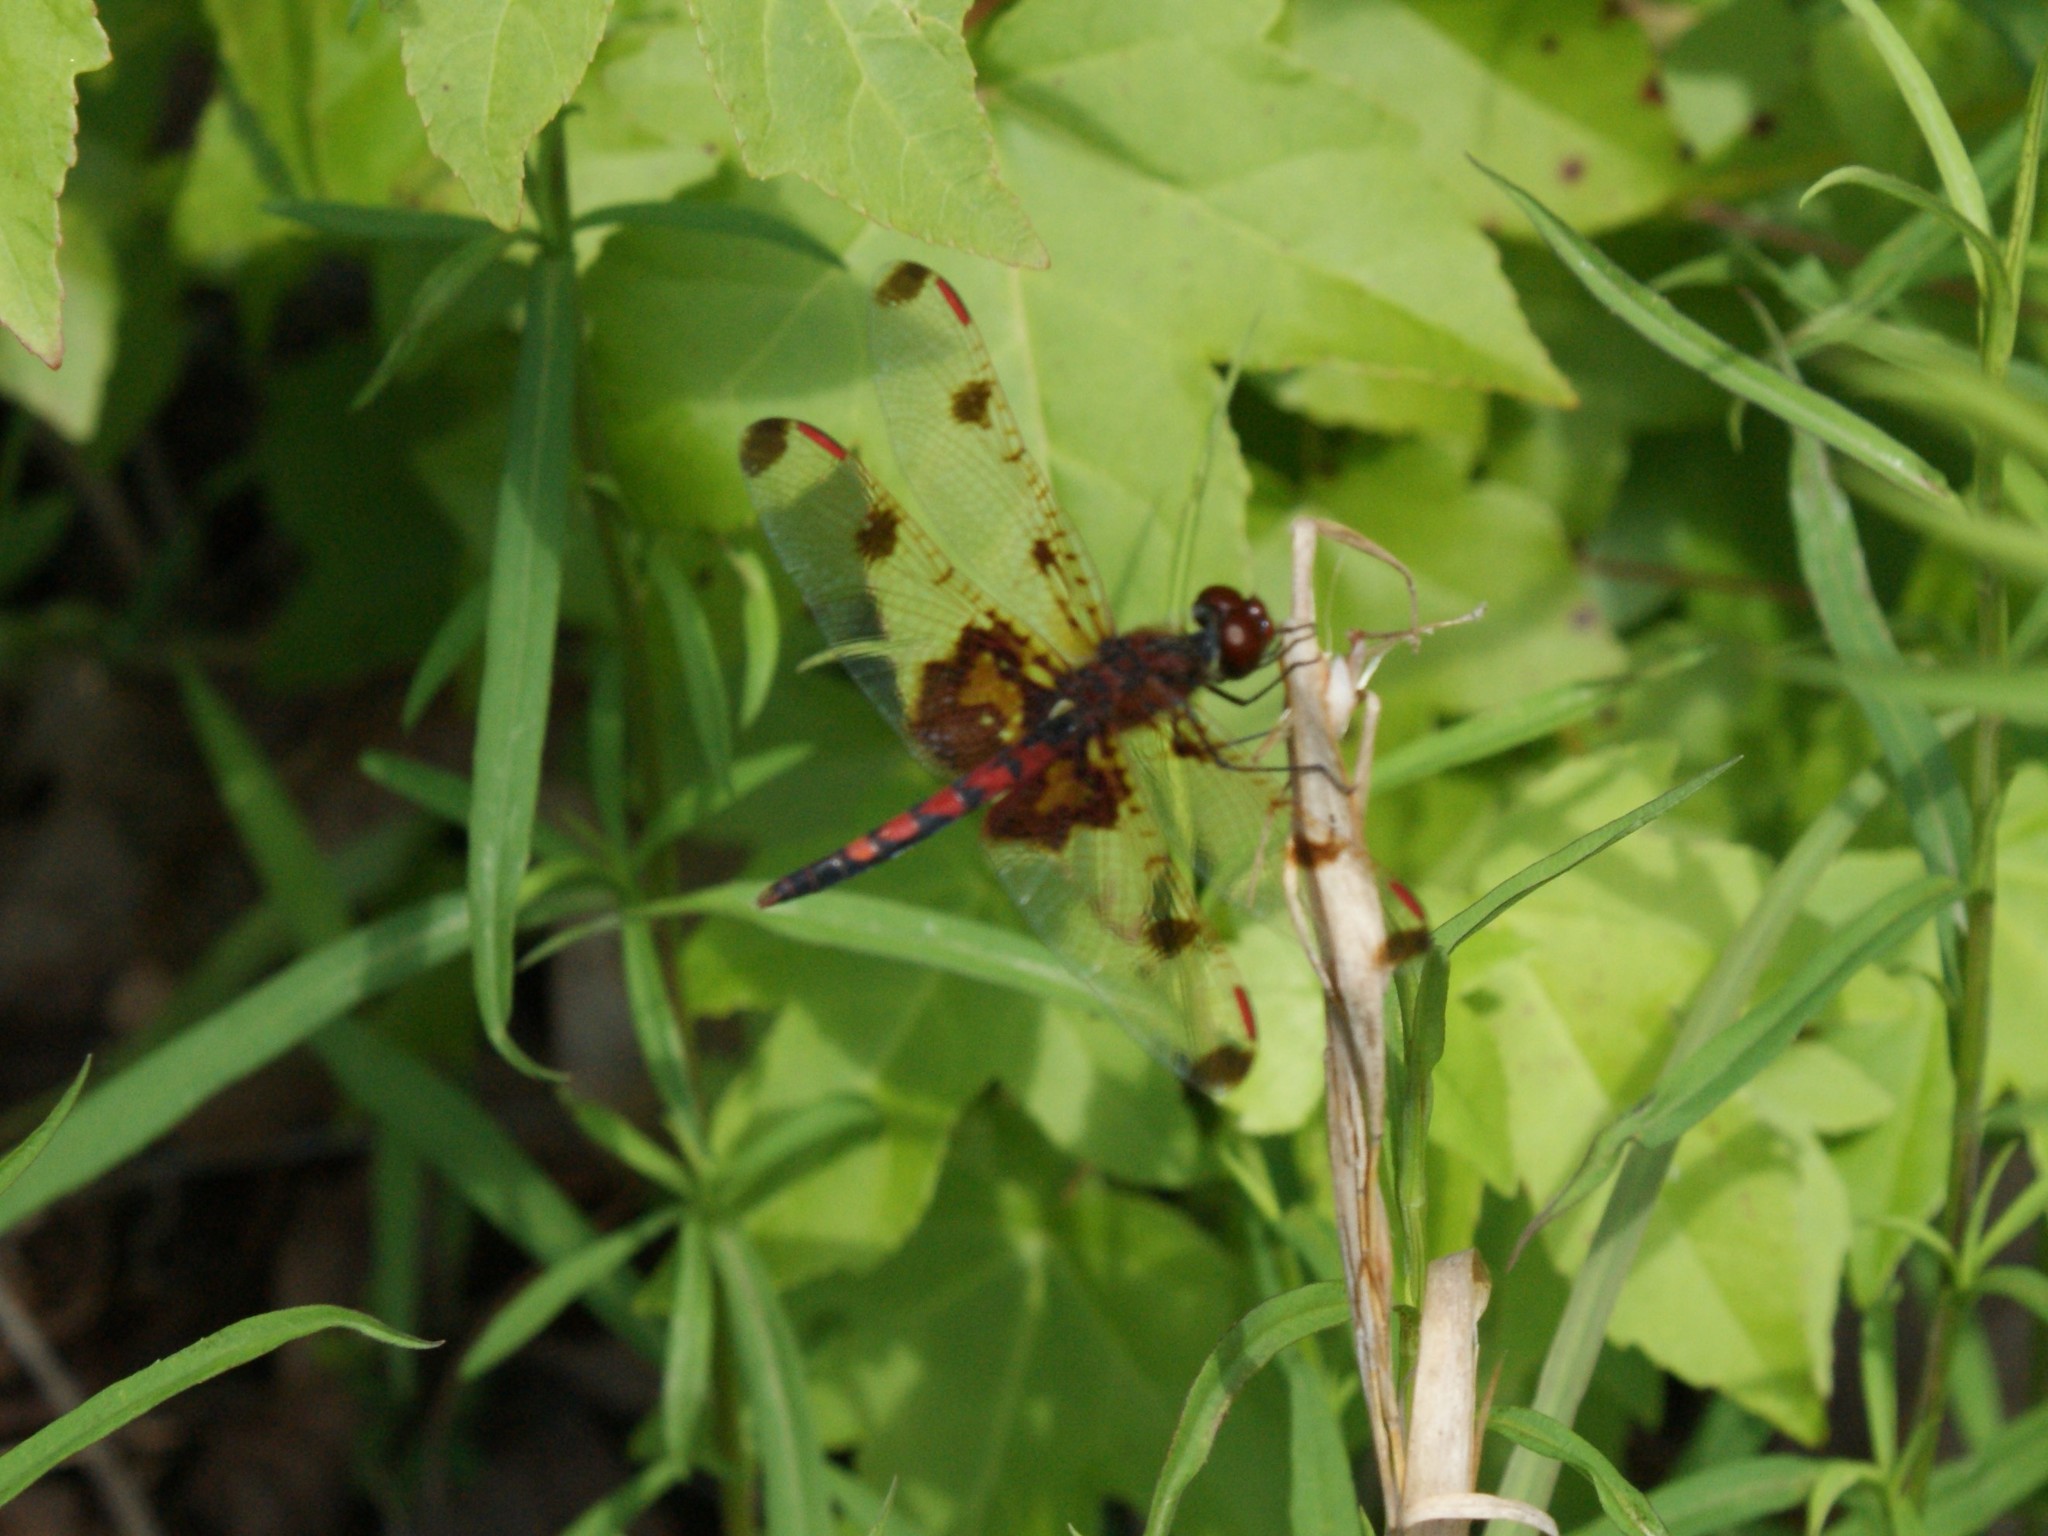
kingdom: Animalia
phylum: Arthropoda
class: Insecta
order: Odonata
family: Libellulidae
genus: Celithemis
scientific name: Celithemis elisa
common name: Calico pennant
